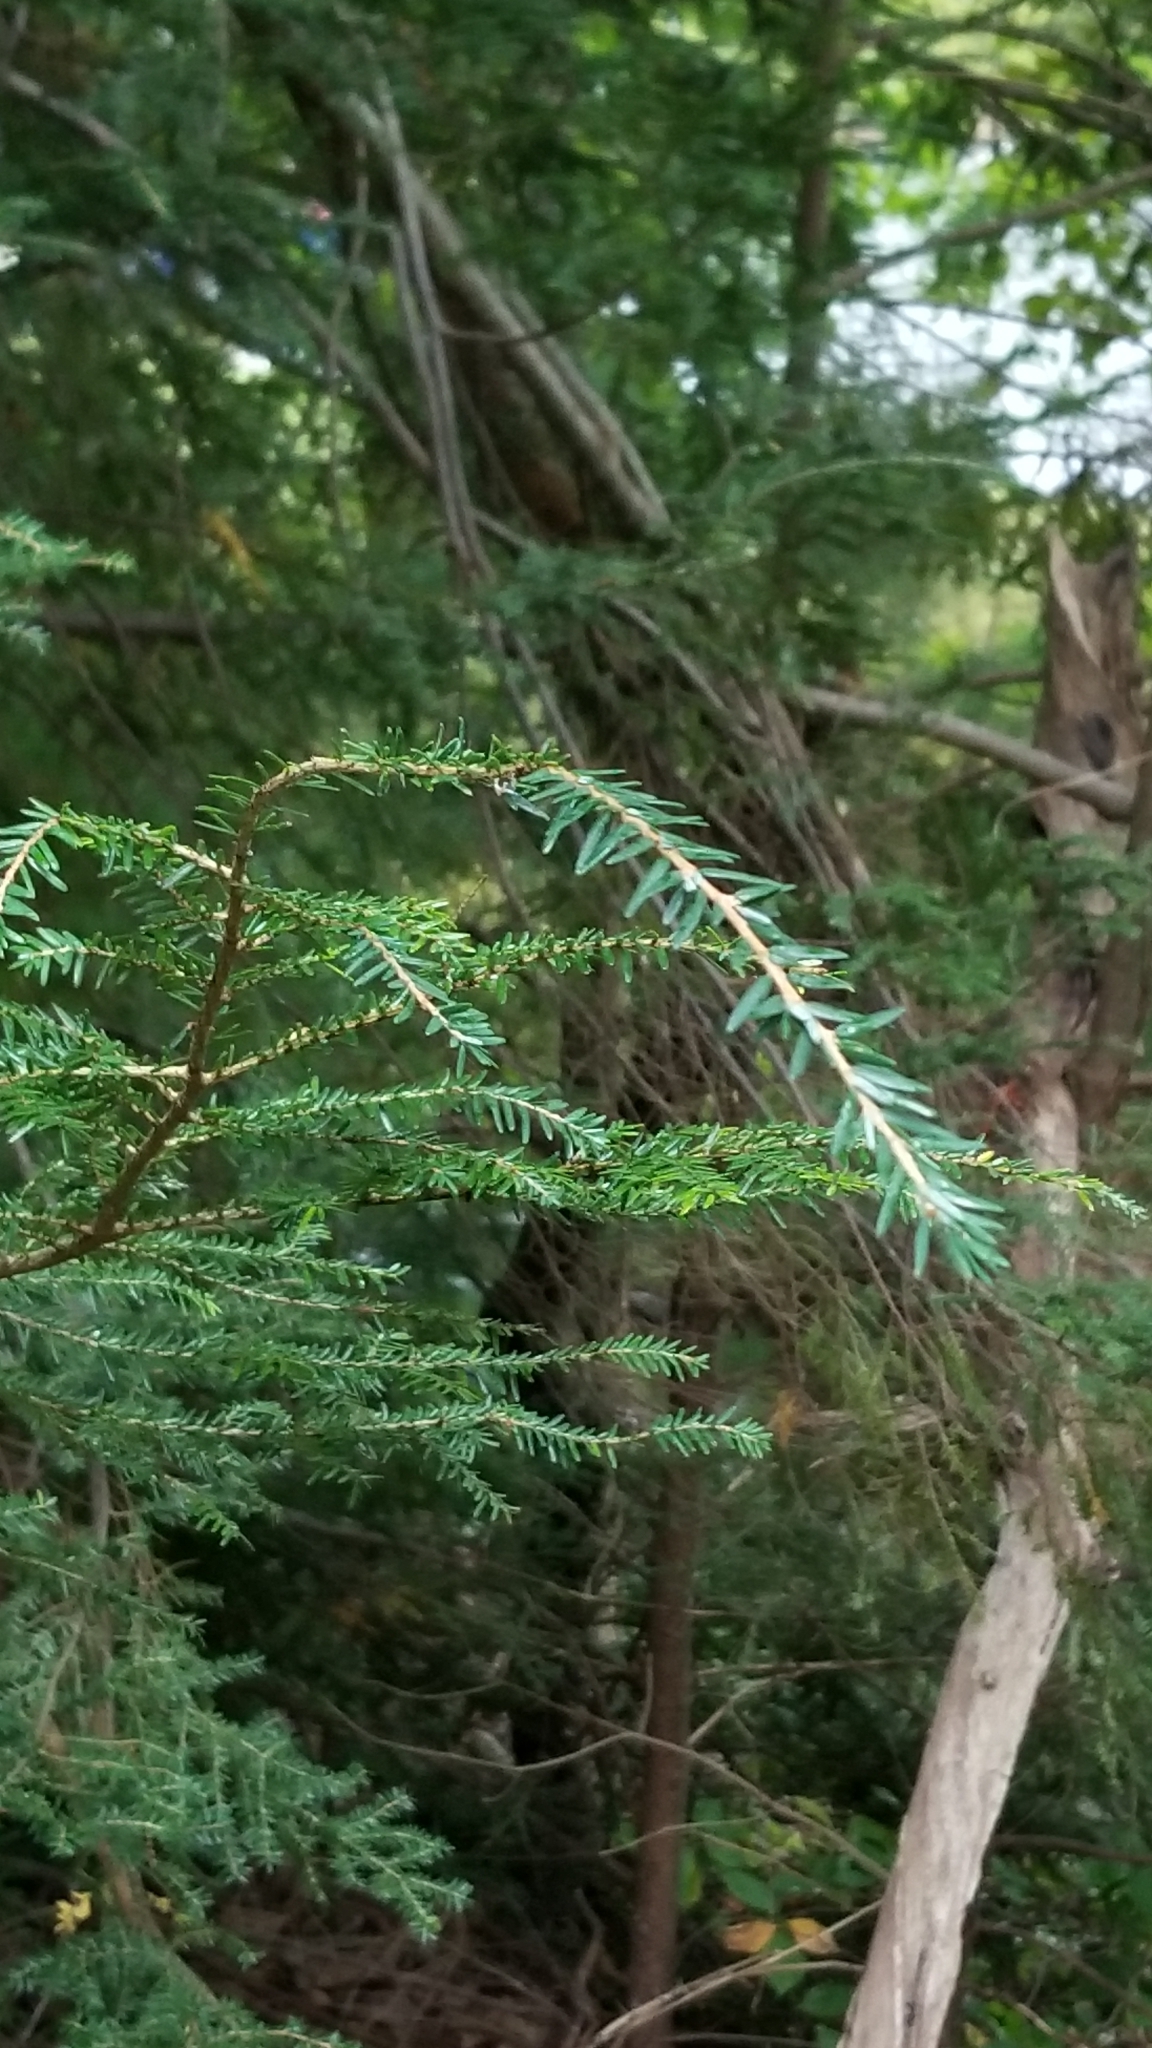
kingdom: Plantae
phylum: Tracheophyta
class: Pinopsida
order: Pinales
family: Pinaceae
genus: Tsuga
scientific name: Tsuga canadensis
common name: Eastern hemlock
